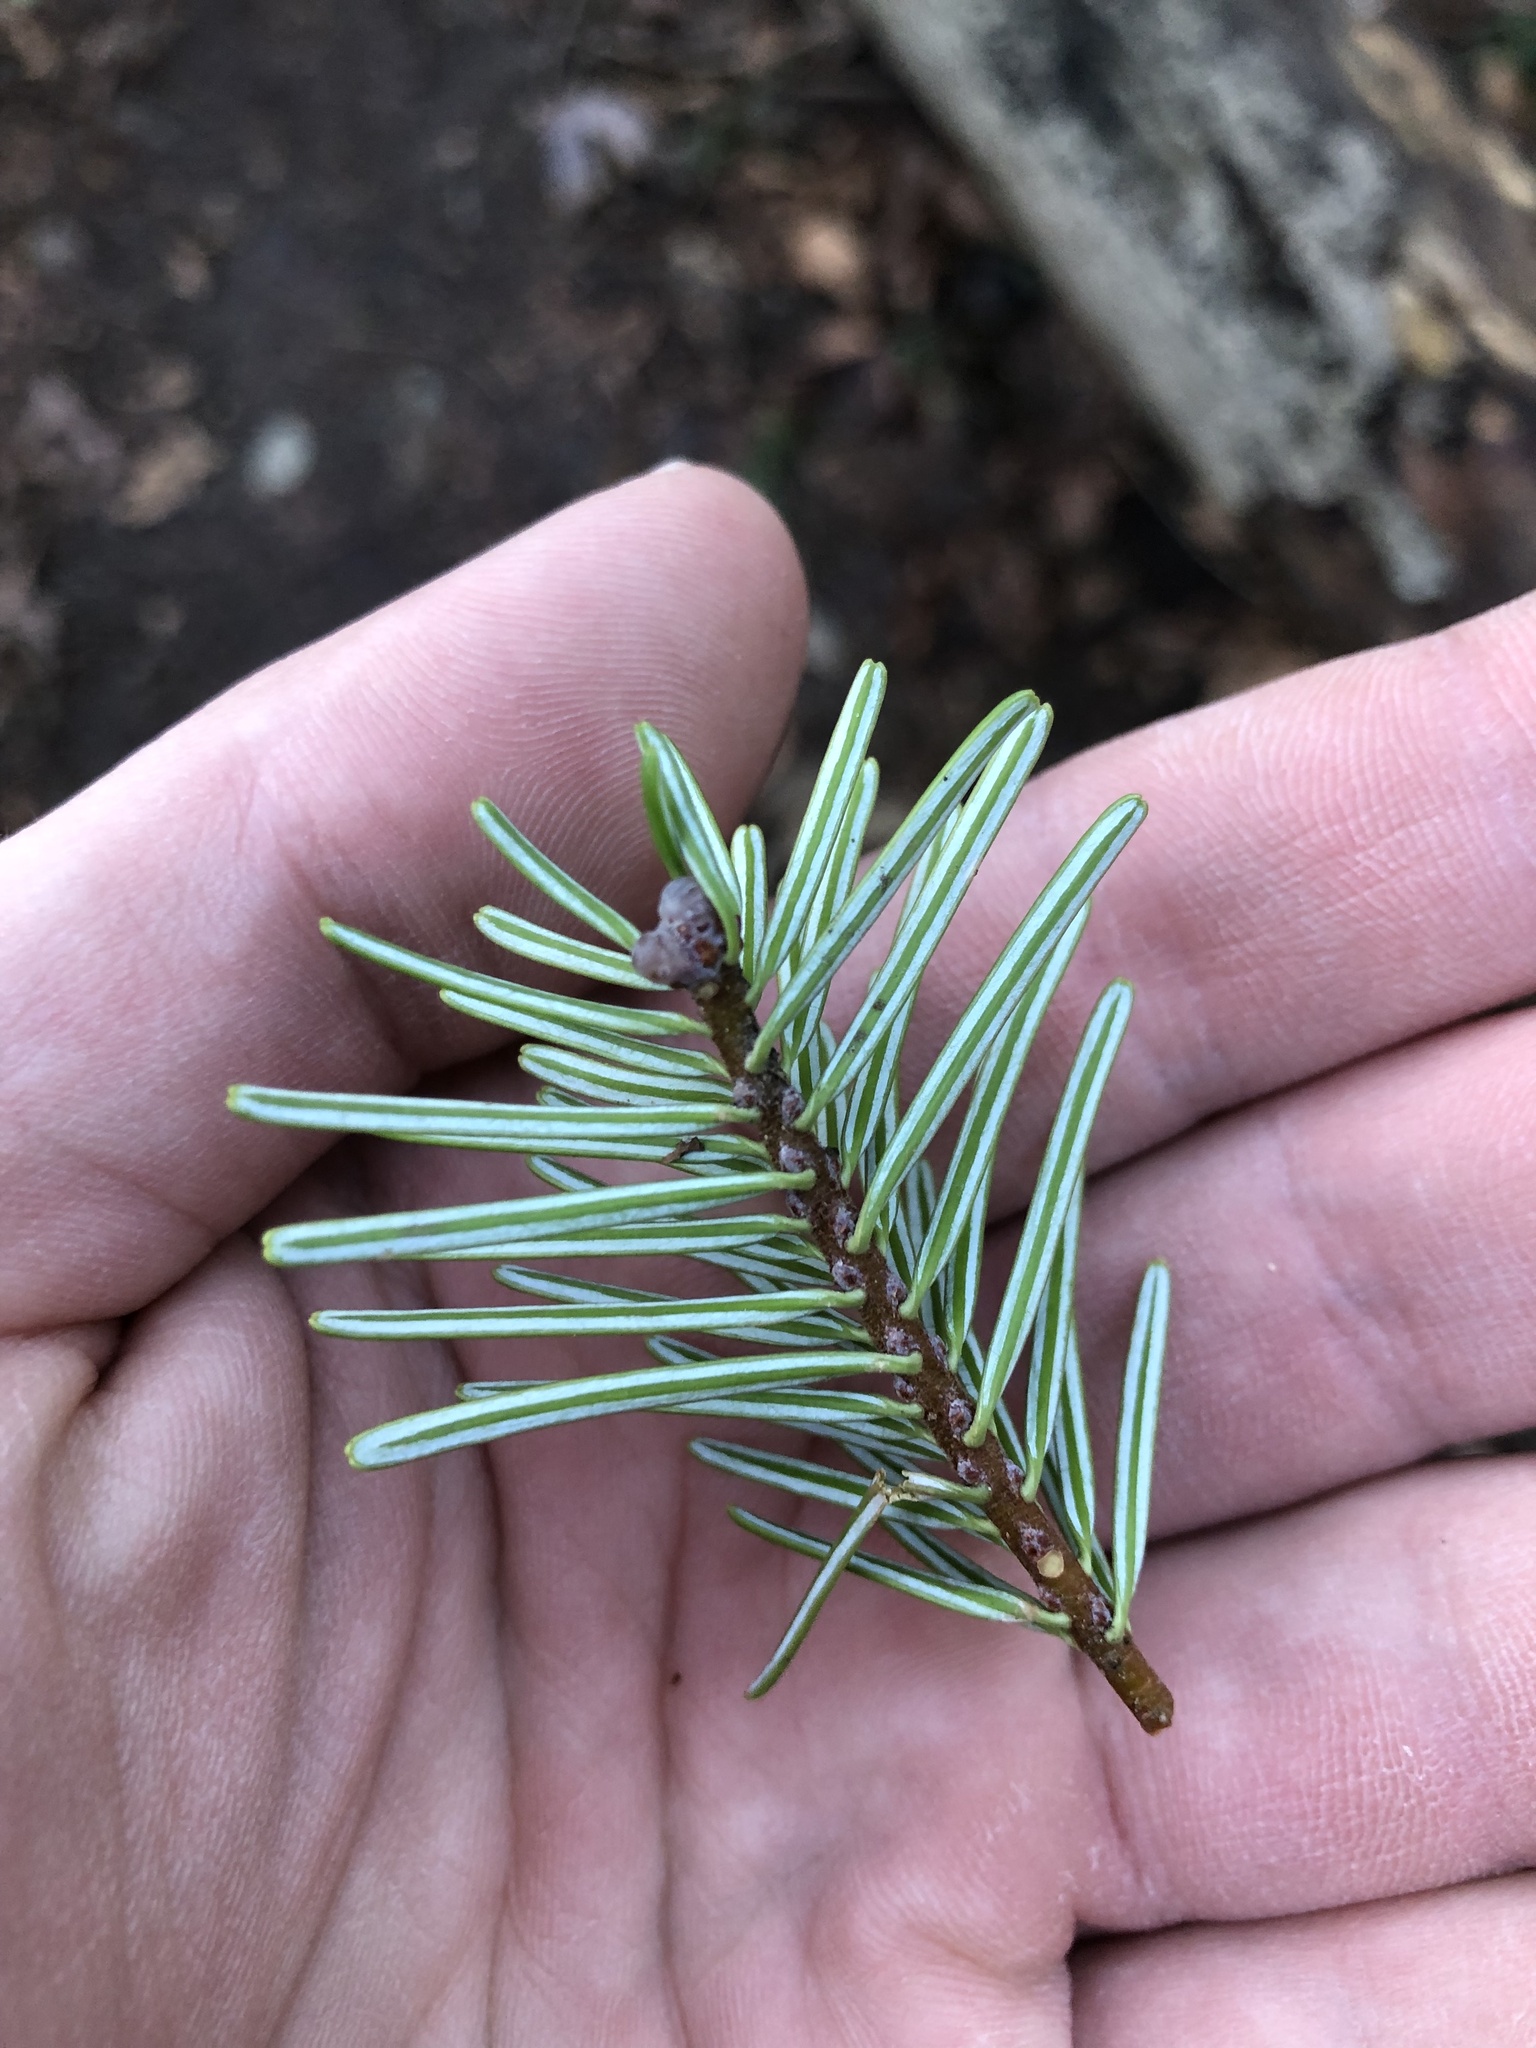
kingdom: Plantae
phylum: Tracheophyta
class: Pinopsida
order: Pinales
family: Pinaceae
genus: Abies
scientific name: Abies grandis
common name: Giant fir
